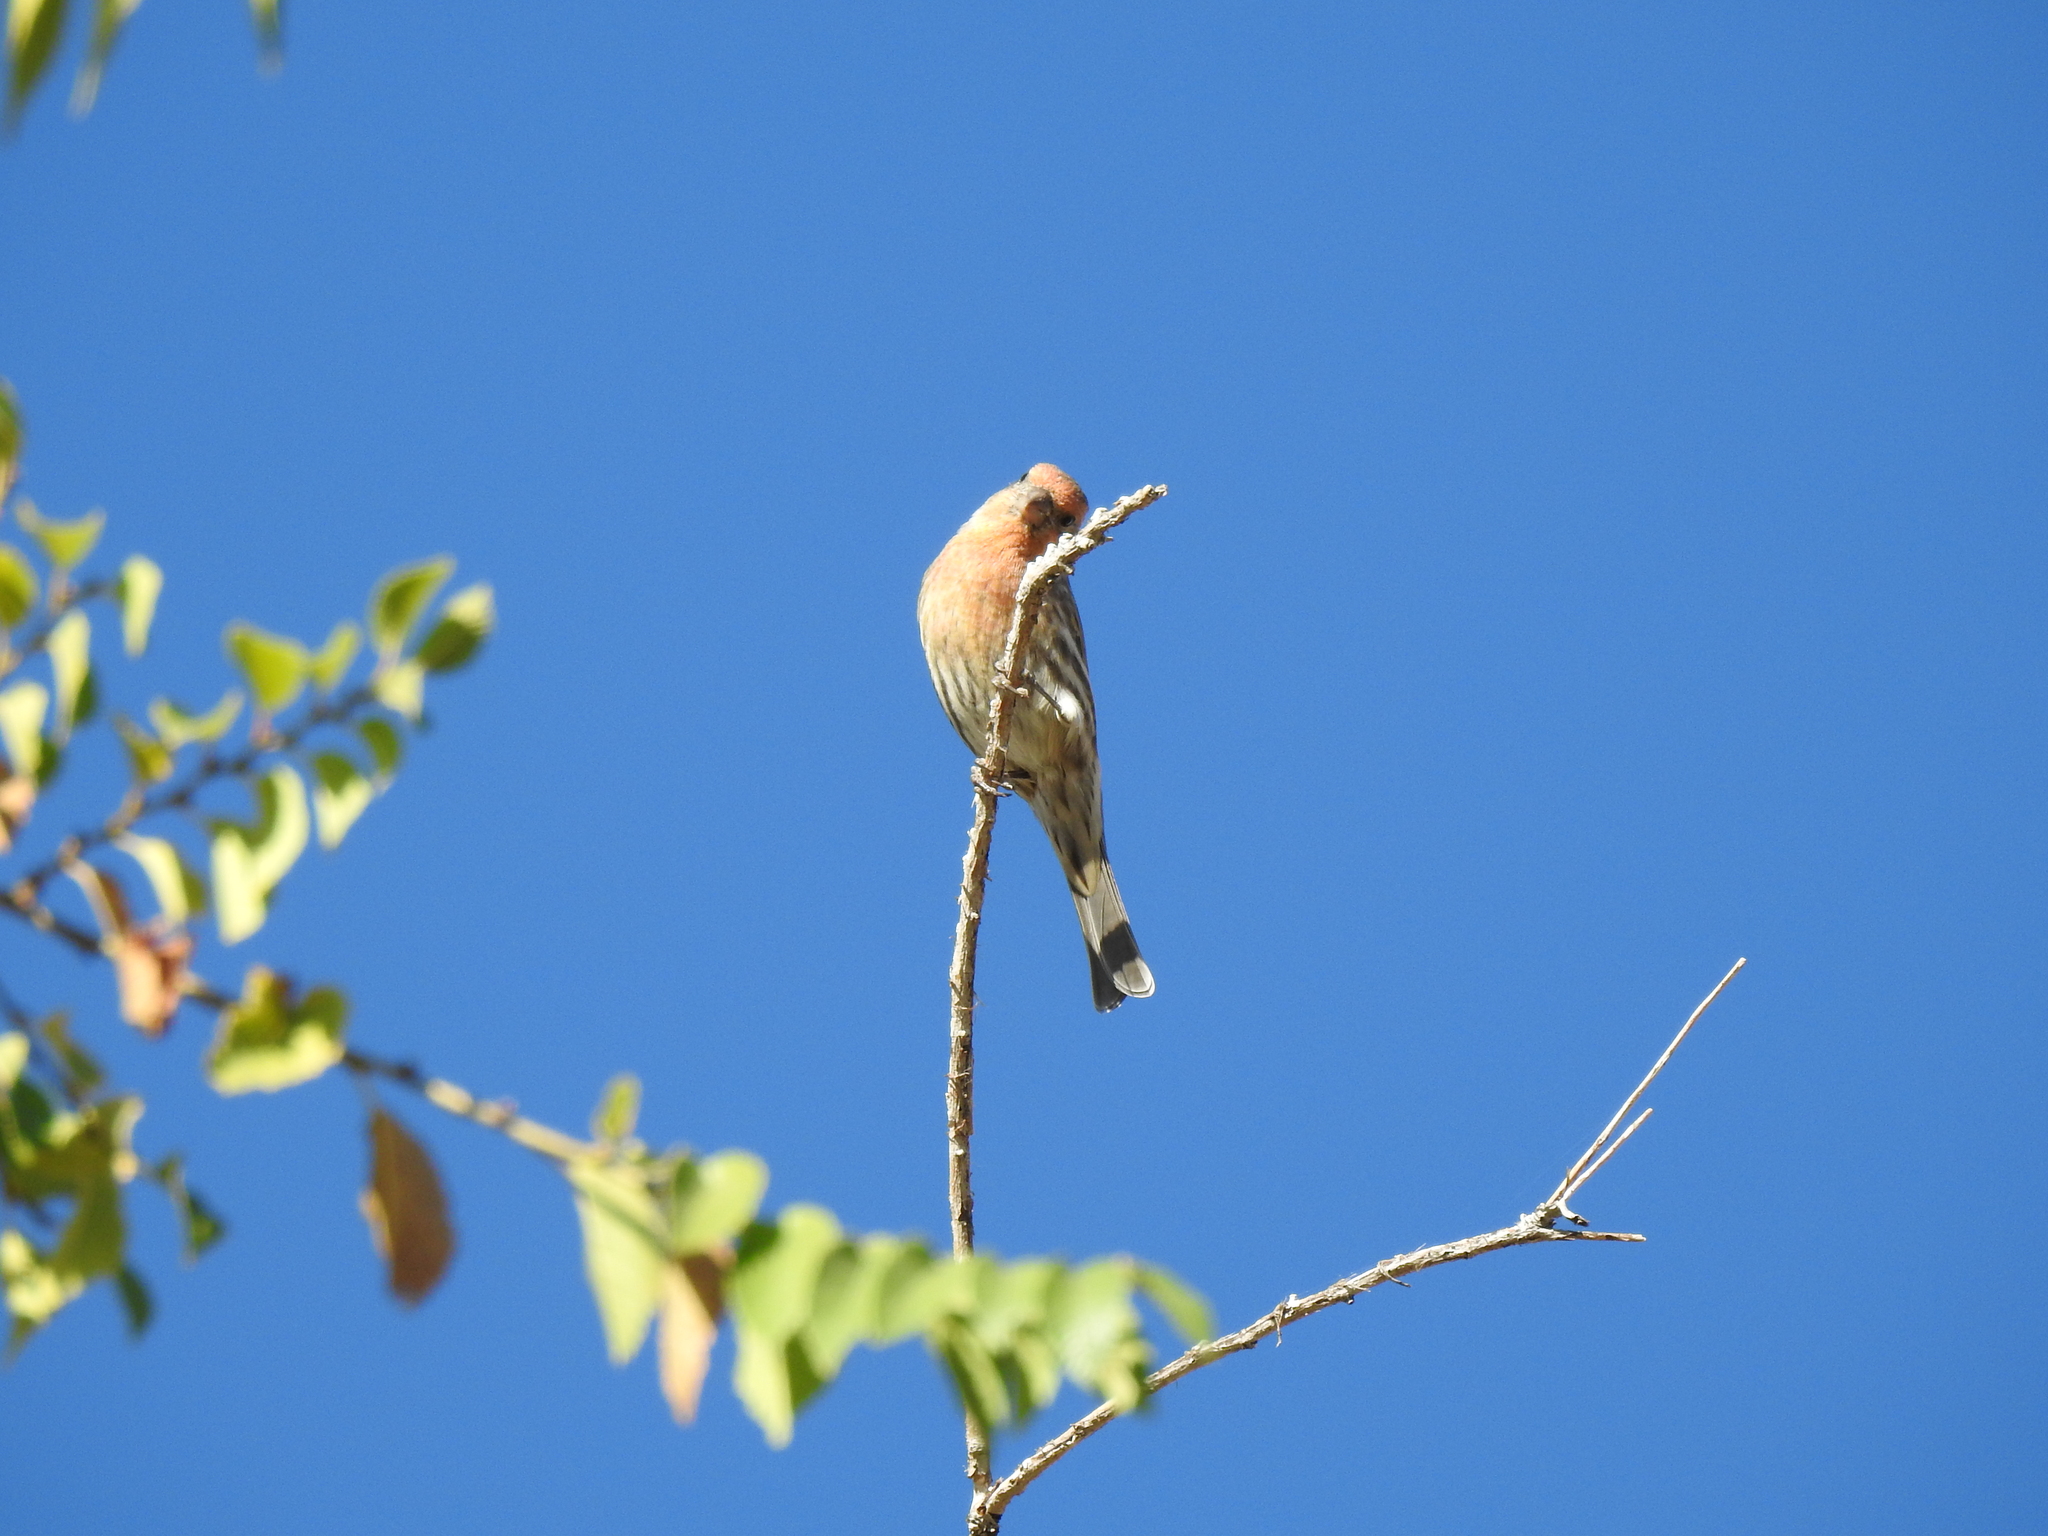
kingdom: Animalia
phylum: Chordata
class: Aves
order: Passeriformes
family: Fringillidae
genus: Haemorhous
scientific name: Haemorhous mexicanus
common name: House finch
